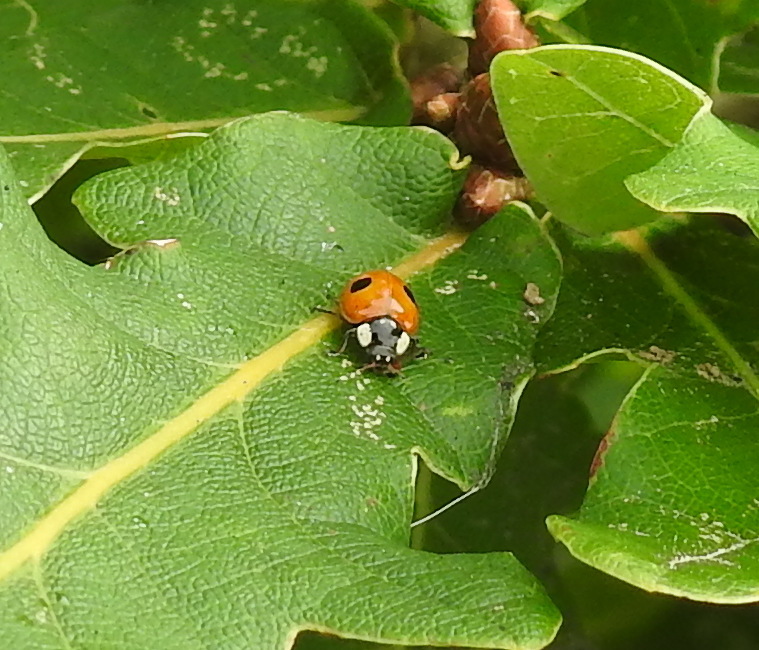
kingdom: Animalia
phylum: Arthropoda
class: Insecta
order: Coleoptera
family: Coccinellidae
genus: Adalia
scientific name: Adalia bipunctata
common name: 2-spot ladybird
